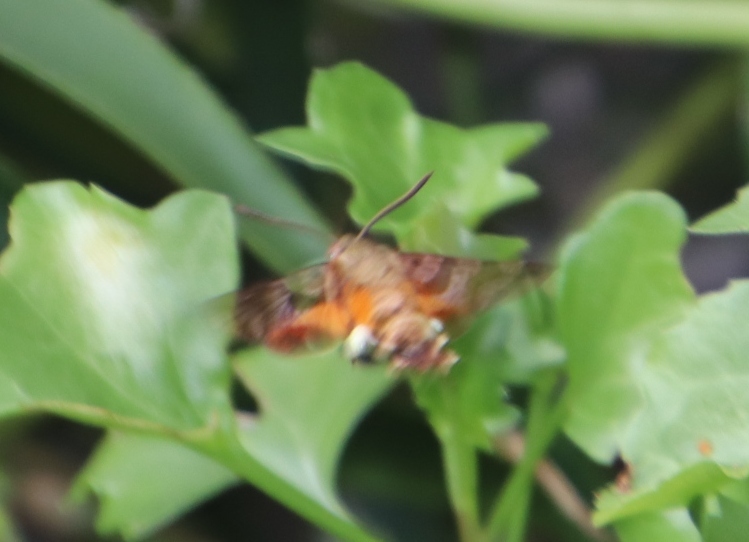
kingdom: Animalia
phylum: Arthropoda
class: Insecta
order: Lepidoptera
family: Sphingidae
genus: Macroglossum
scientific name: Macroglossum trochilus
